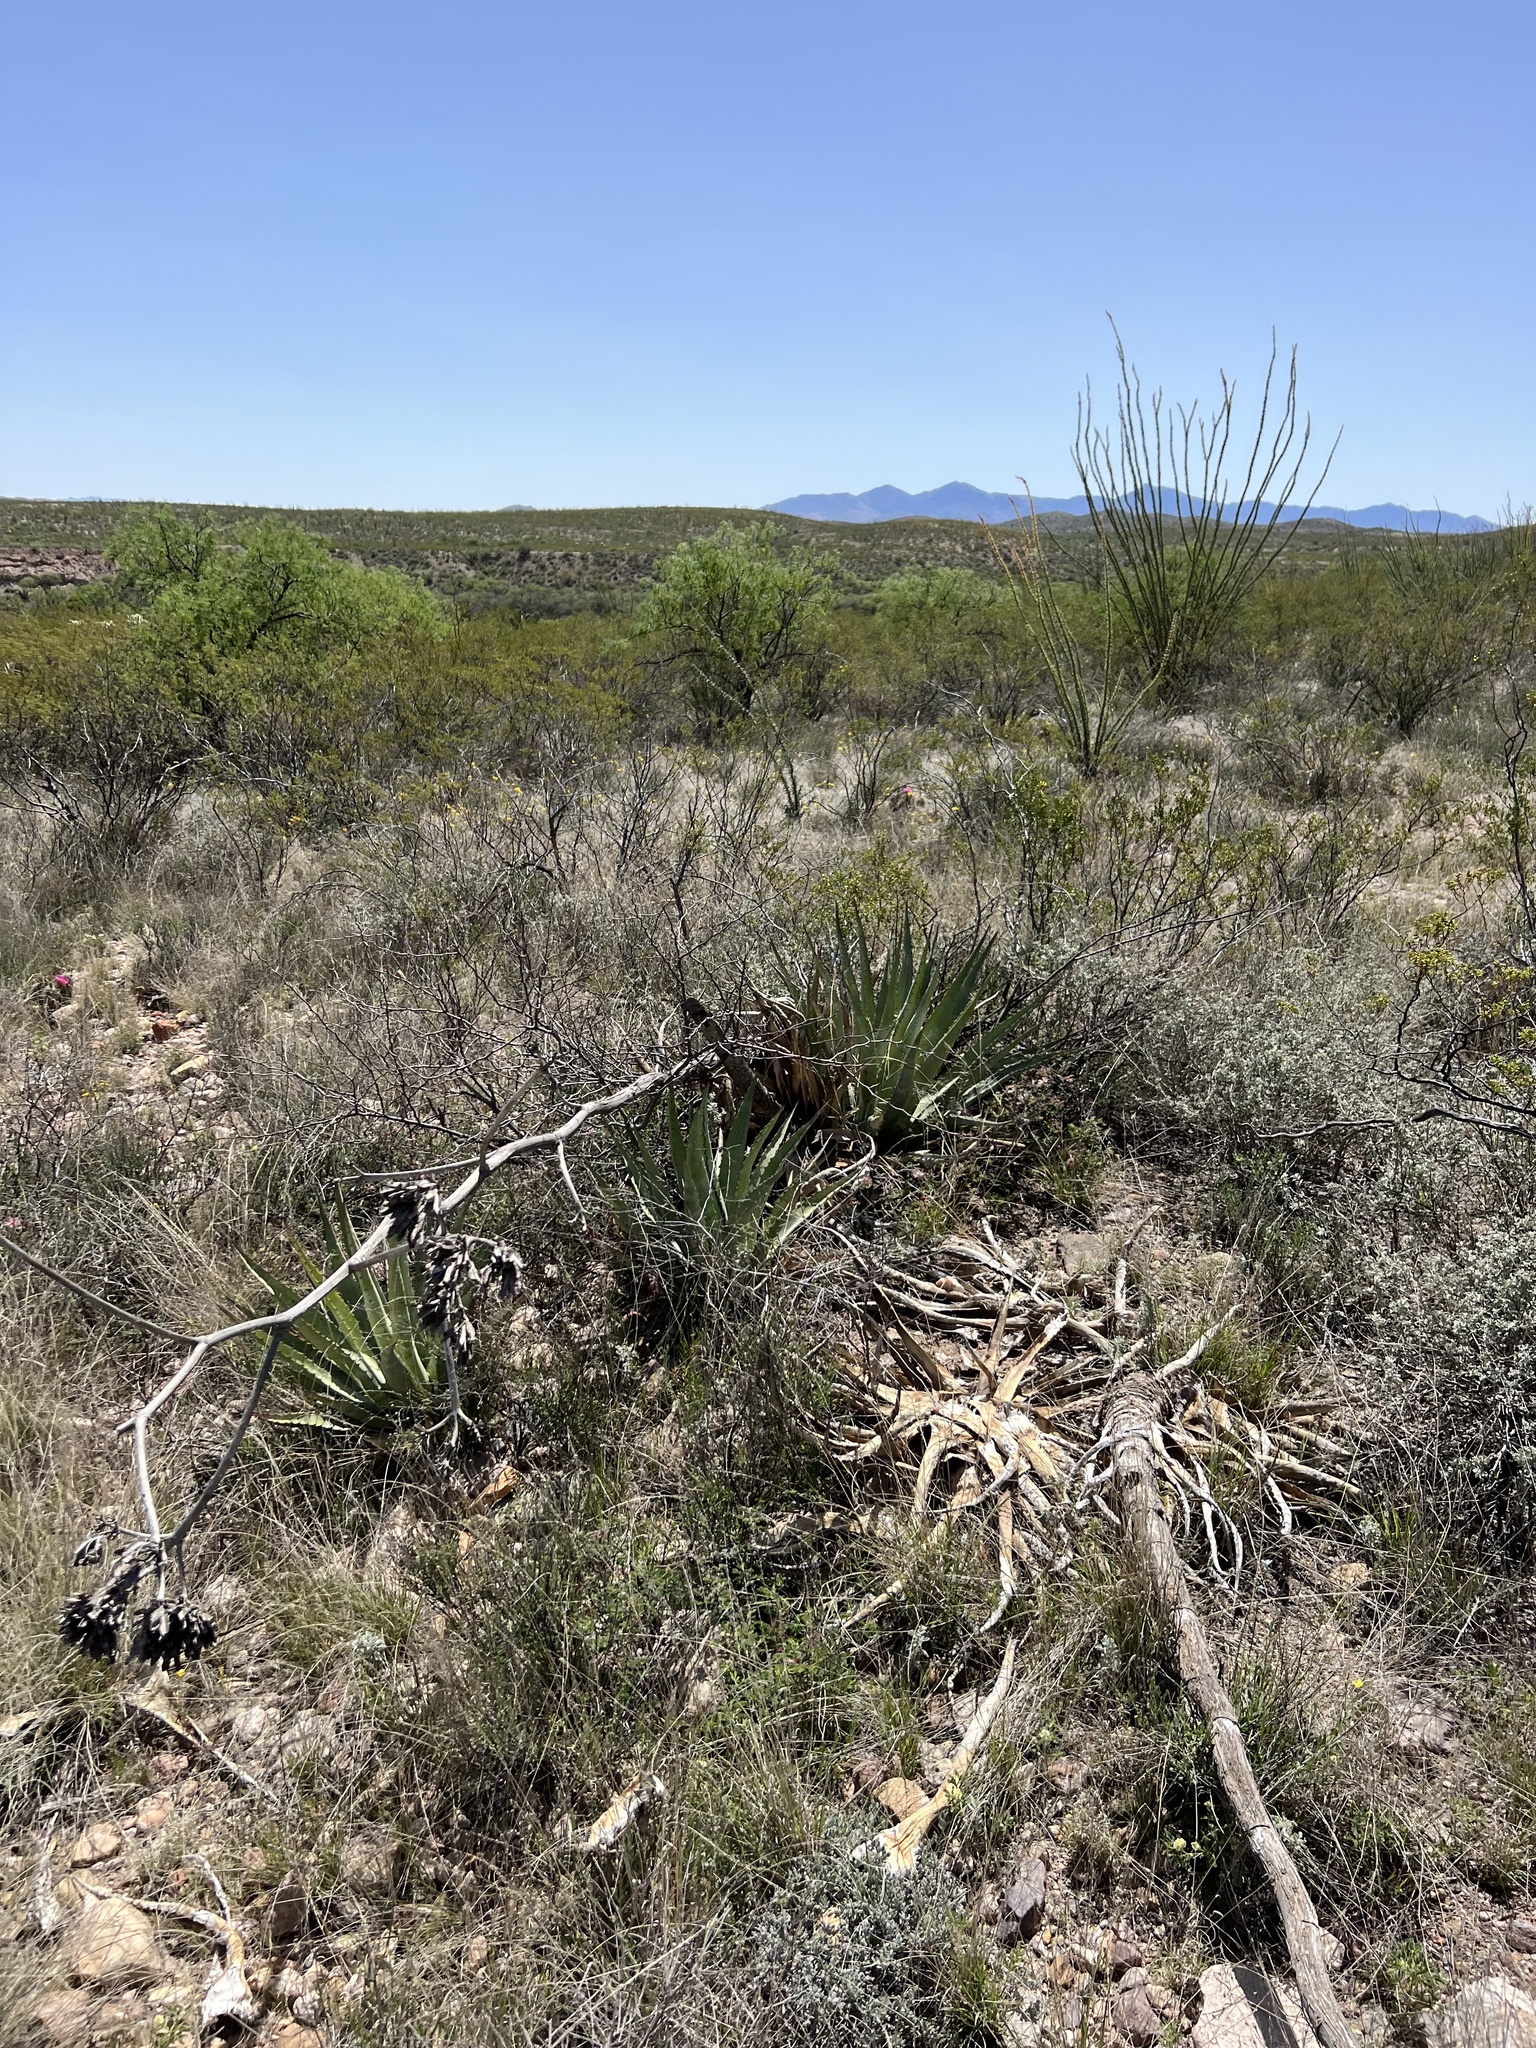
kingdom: Plantae
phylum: Tracheophyta
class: Liliopsida
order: Asparagales
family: Asparagaceae
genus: Agave
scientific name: Agave palmeri
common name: Palmer agave
